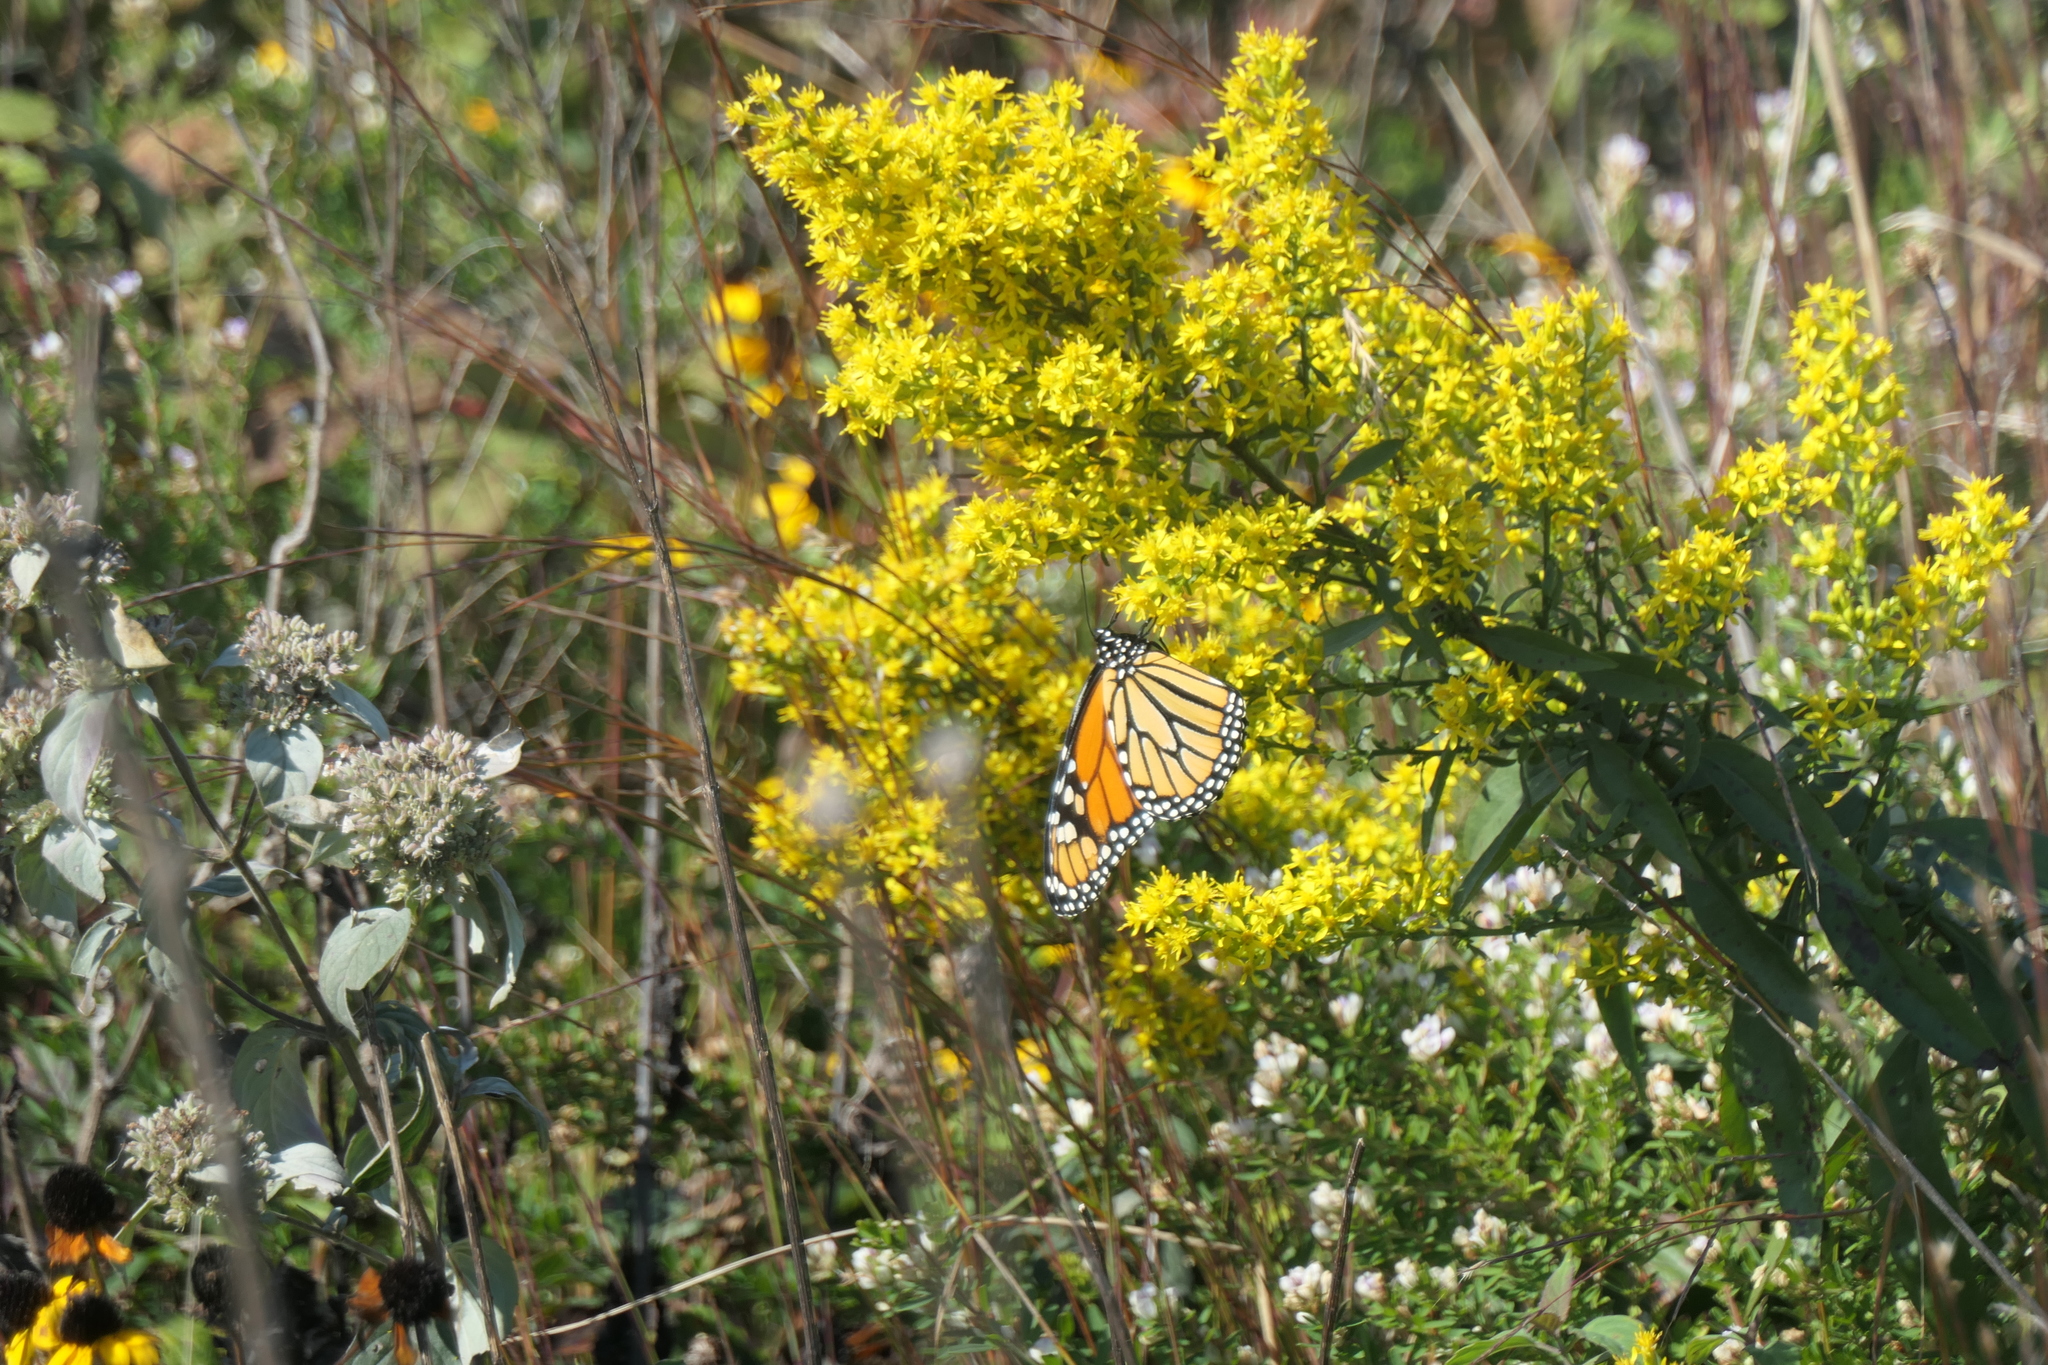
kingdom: Animalia
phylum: Arthropoda
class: Insecta
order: Lepidoptera
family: Nymphalidae
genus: Danaus
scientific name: Danaus plexippus
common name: Monarch
